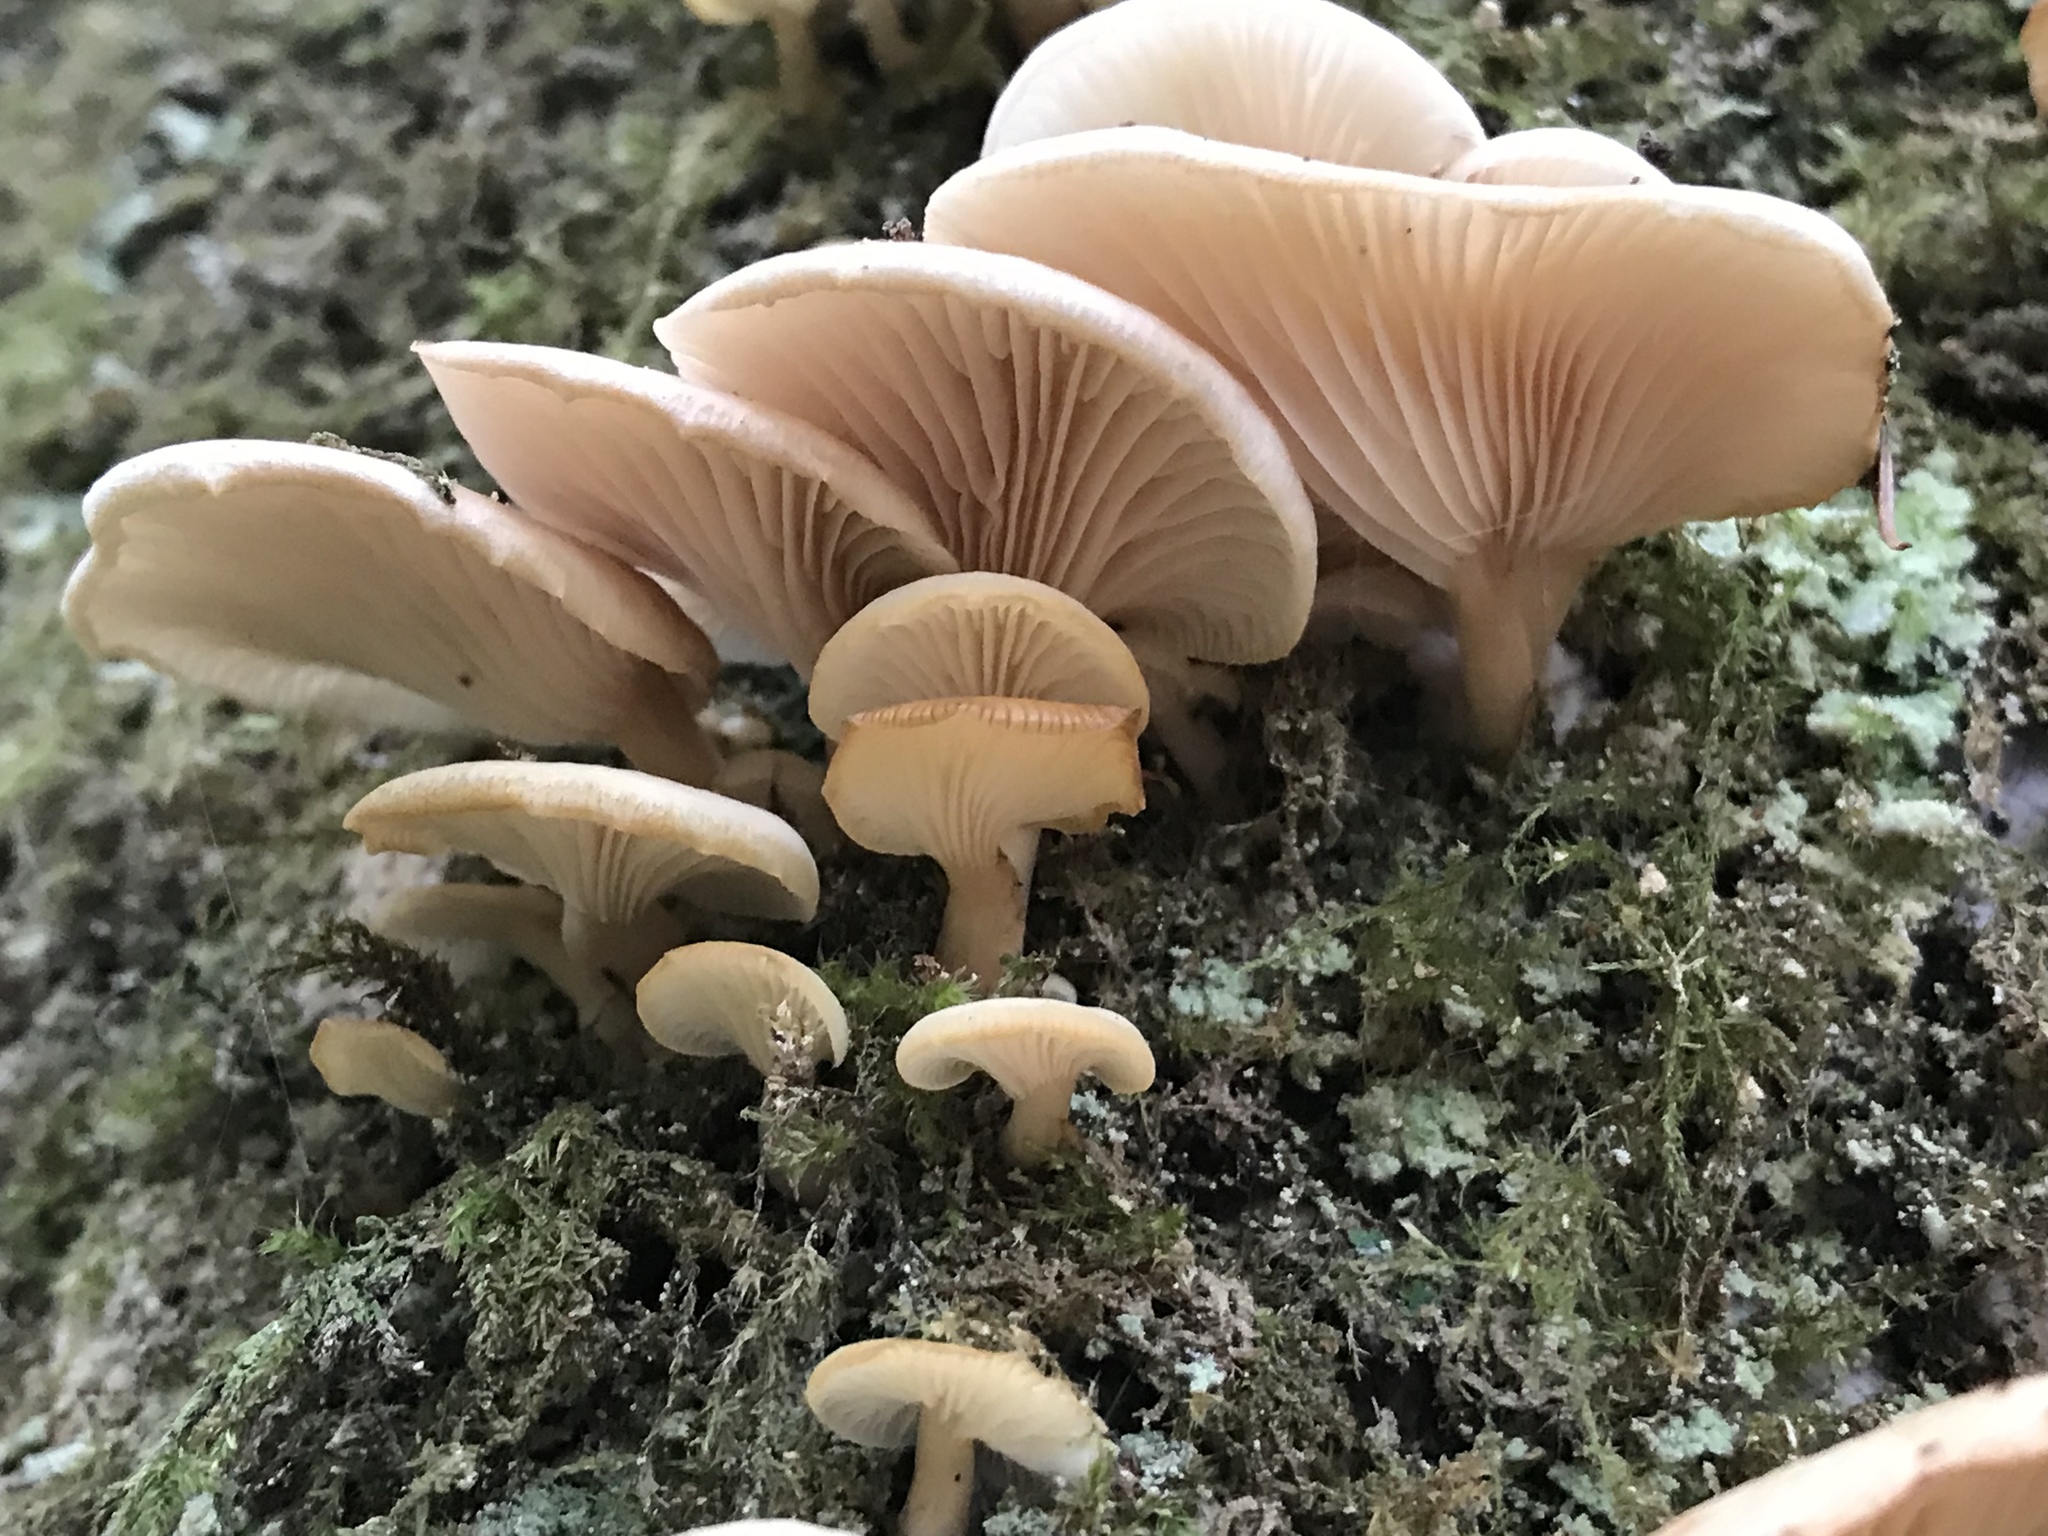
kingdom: Fungi
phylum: Basidiomycota
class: Agaricomycetes
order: Agaricales
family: Pleurotaceae
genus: Pleurotus
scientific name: Pleurotus ostreatus
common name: Oyster mushroom
